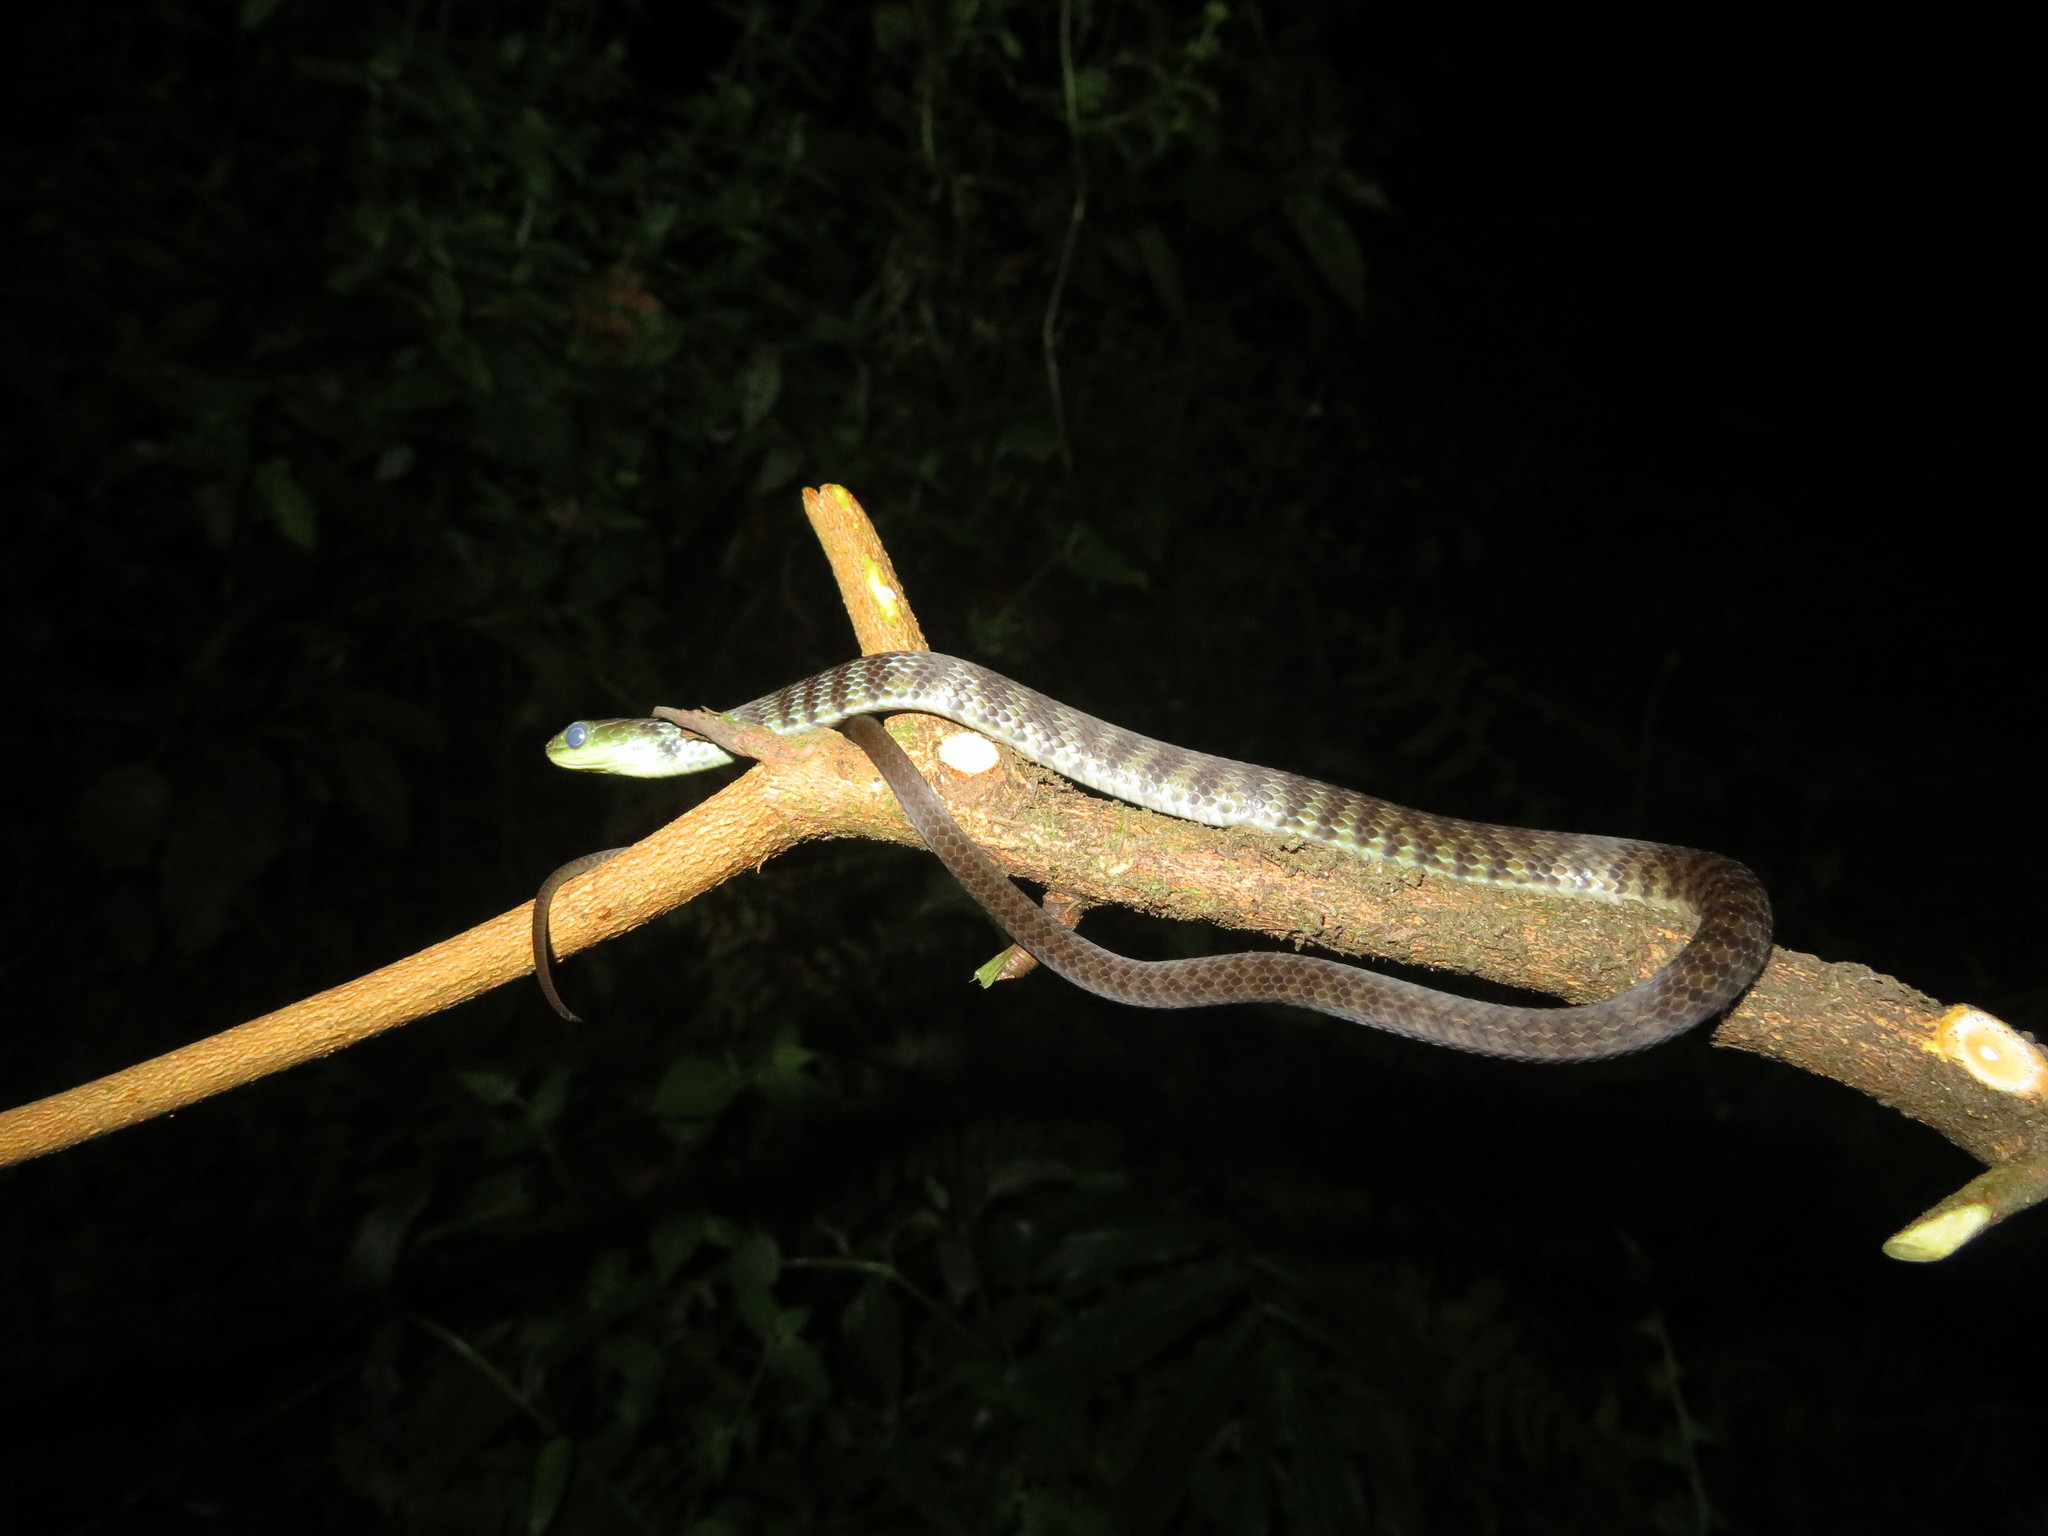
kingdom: Animalia
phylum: Chordata
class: Squamata
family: Colubridae
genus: Philothamnus
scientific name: Philothamnus macrops
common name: Large-eyed green snake
